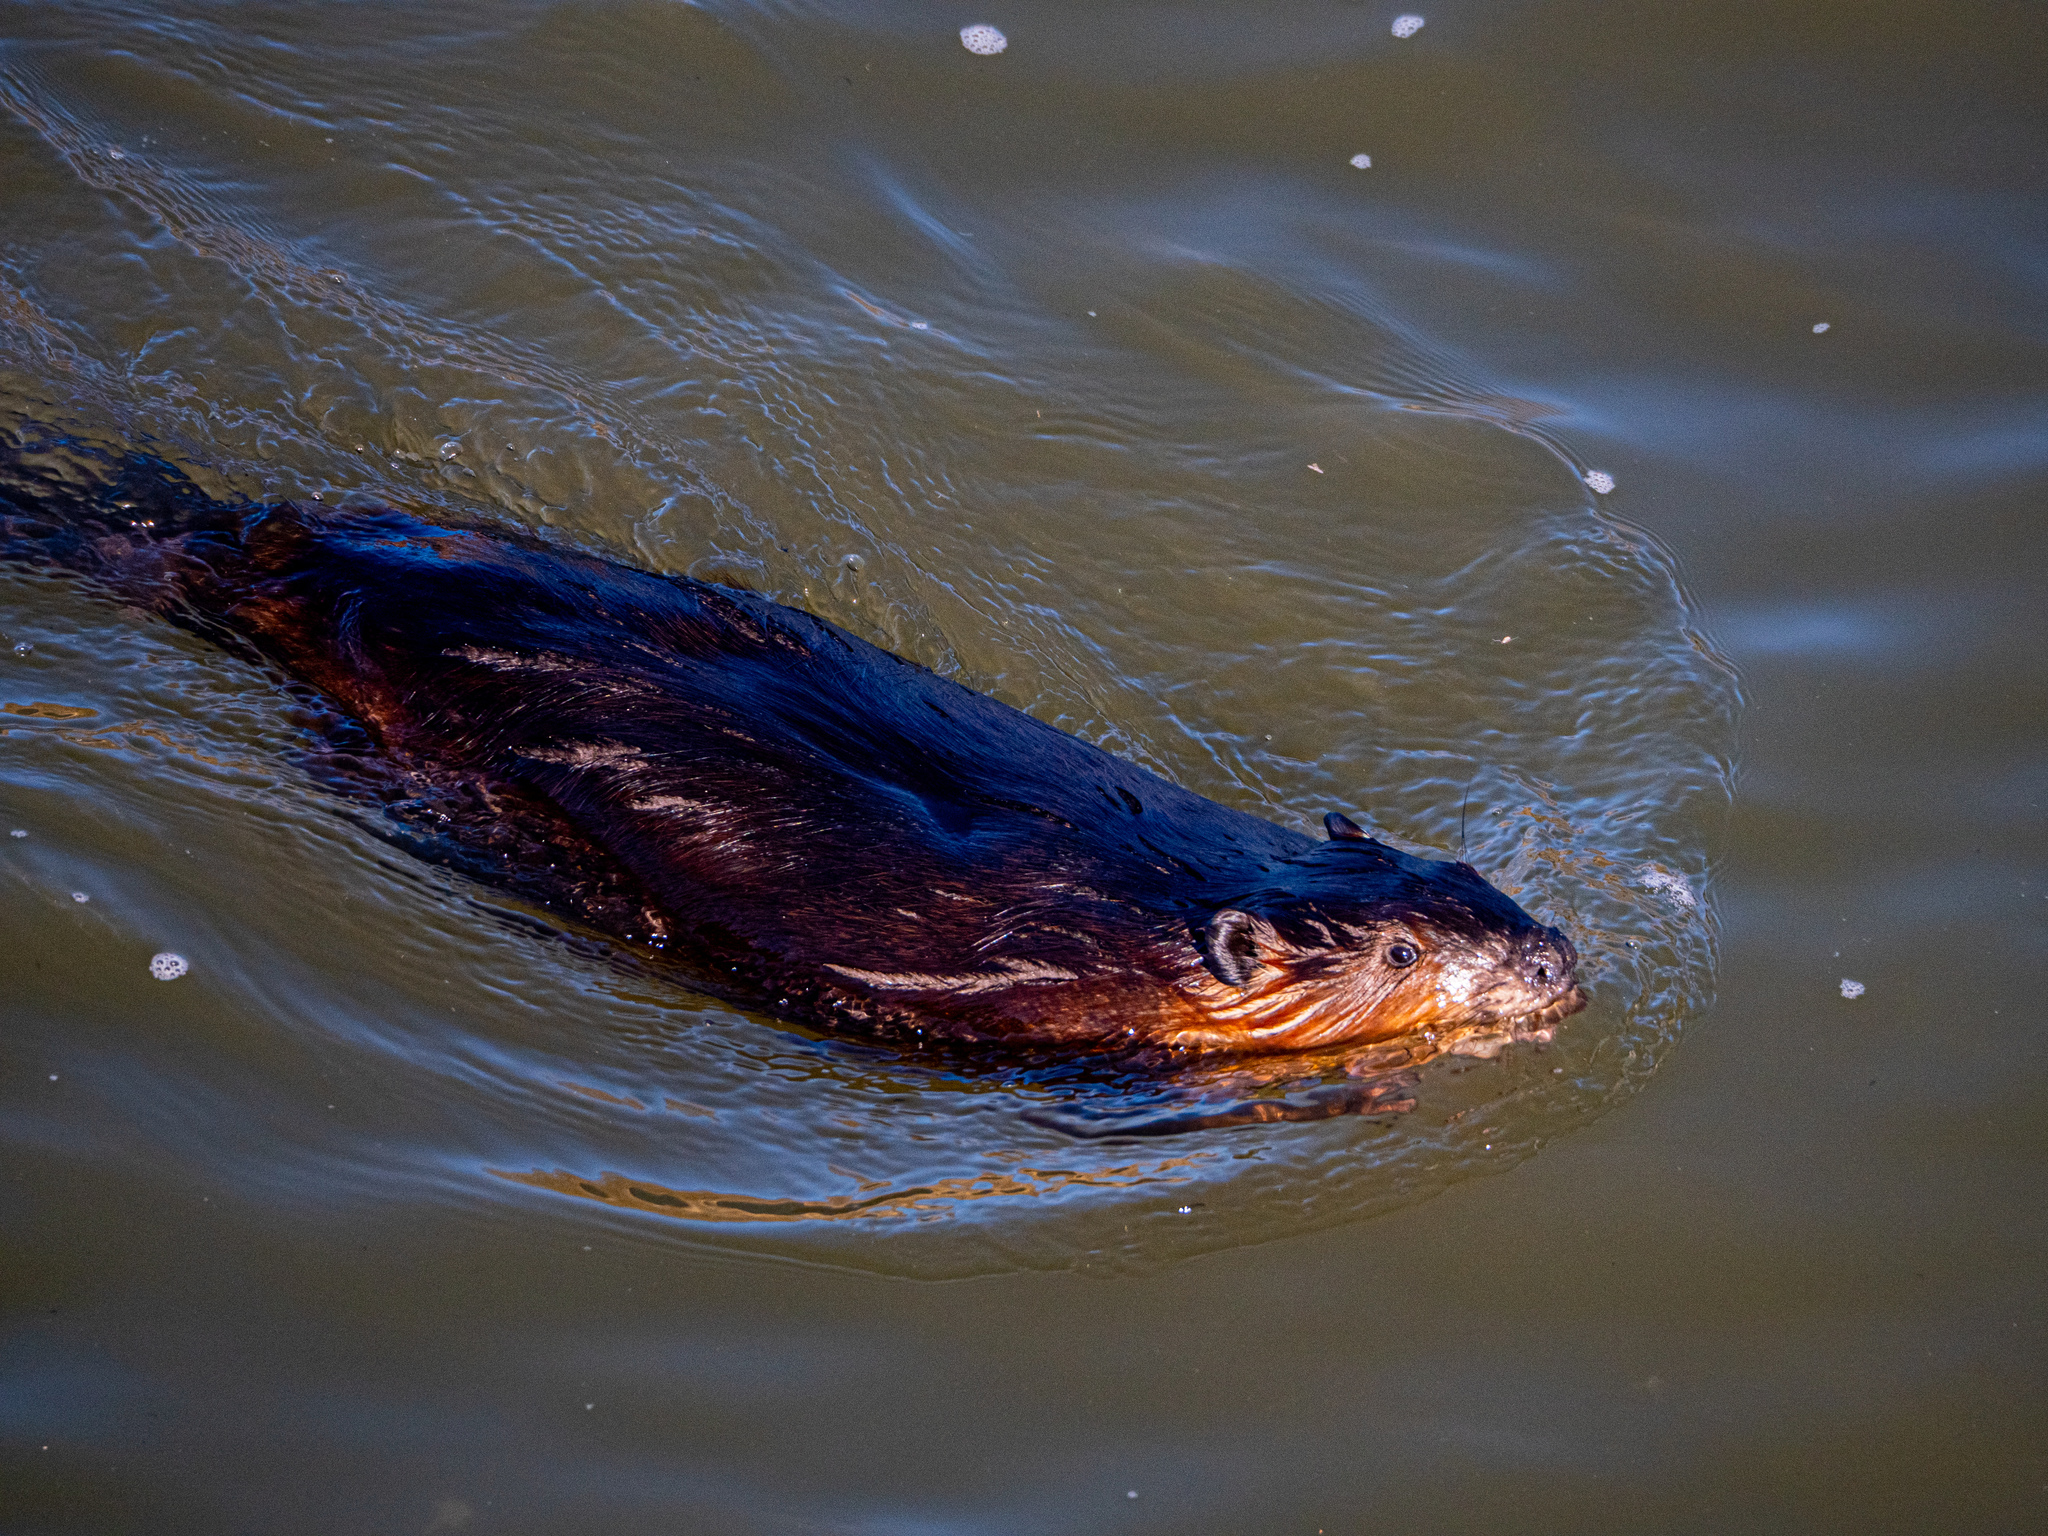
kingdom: Animalia
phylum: Chordata
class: Mammalia
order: Rodentia
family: Castoridae
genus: Castor
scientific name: Castor canadensis
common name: American beaver
